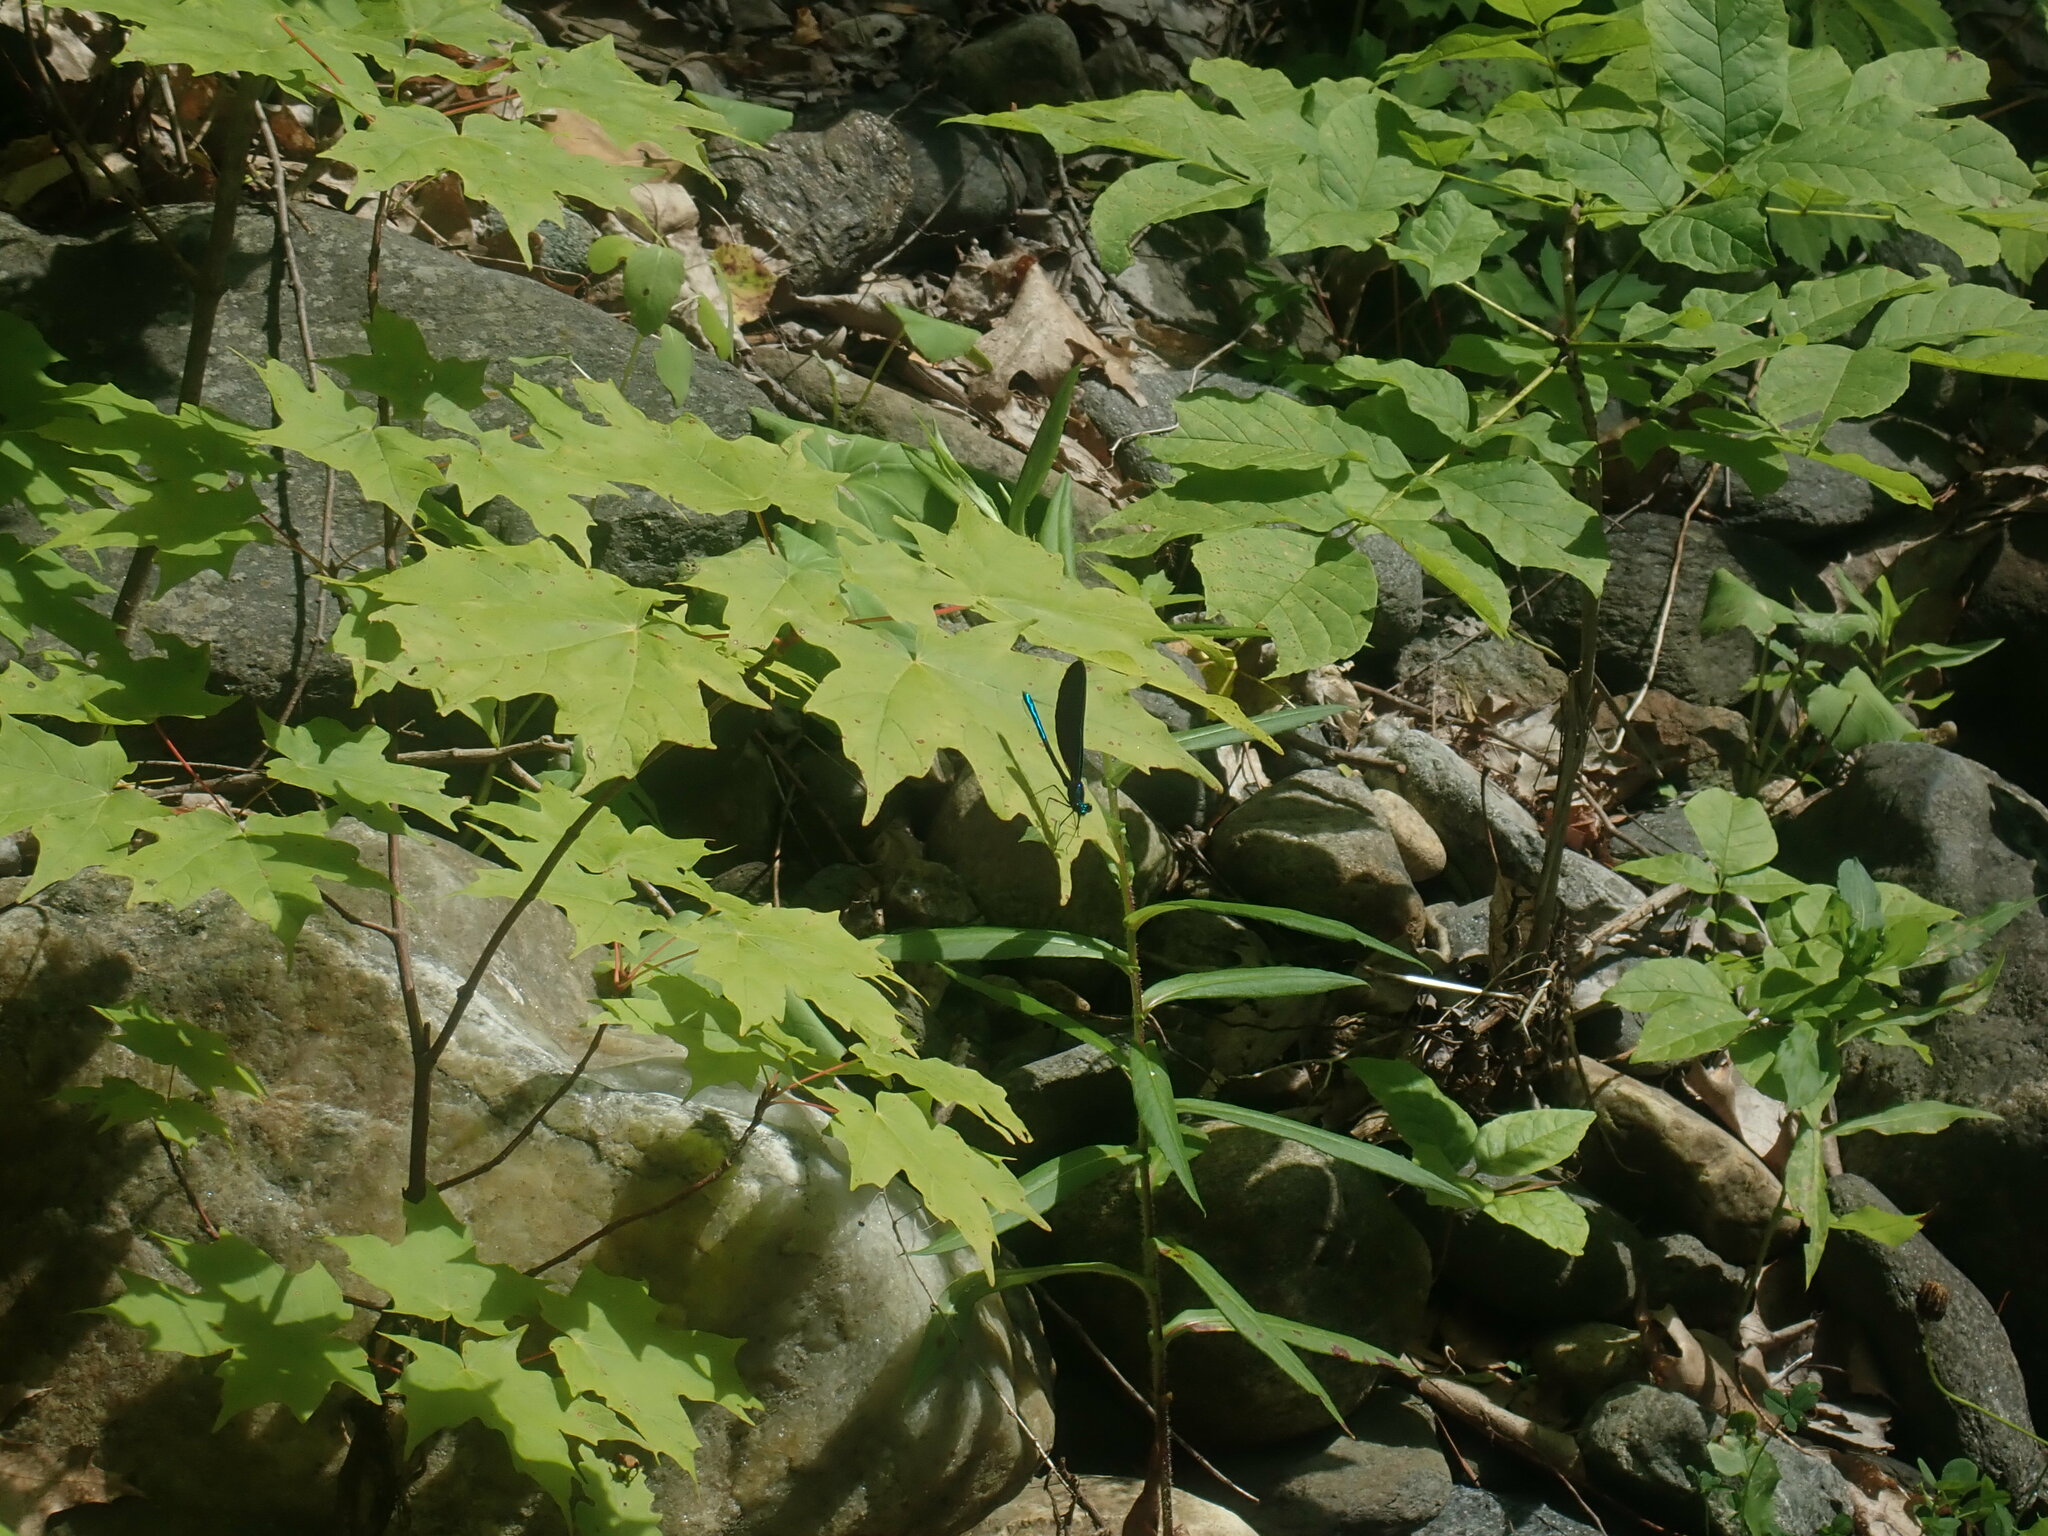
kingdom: Animalia
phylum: Arthropoda
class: Insecta
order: Odonata
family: Calopterygidae
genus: Calopteryx
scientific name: Calopteryx maculata
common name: Ebony jewelwing
